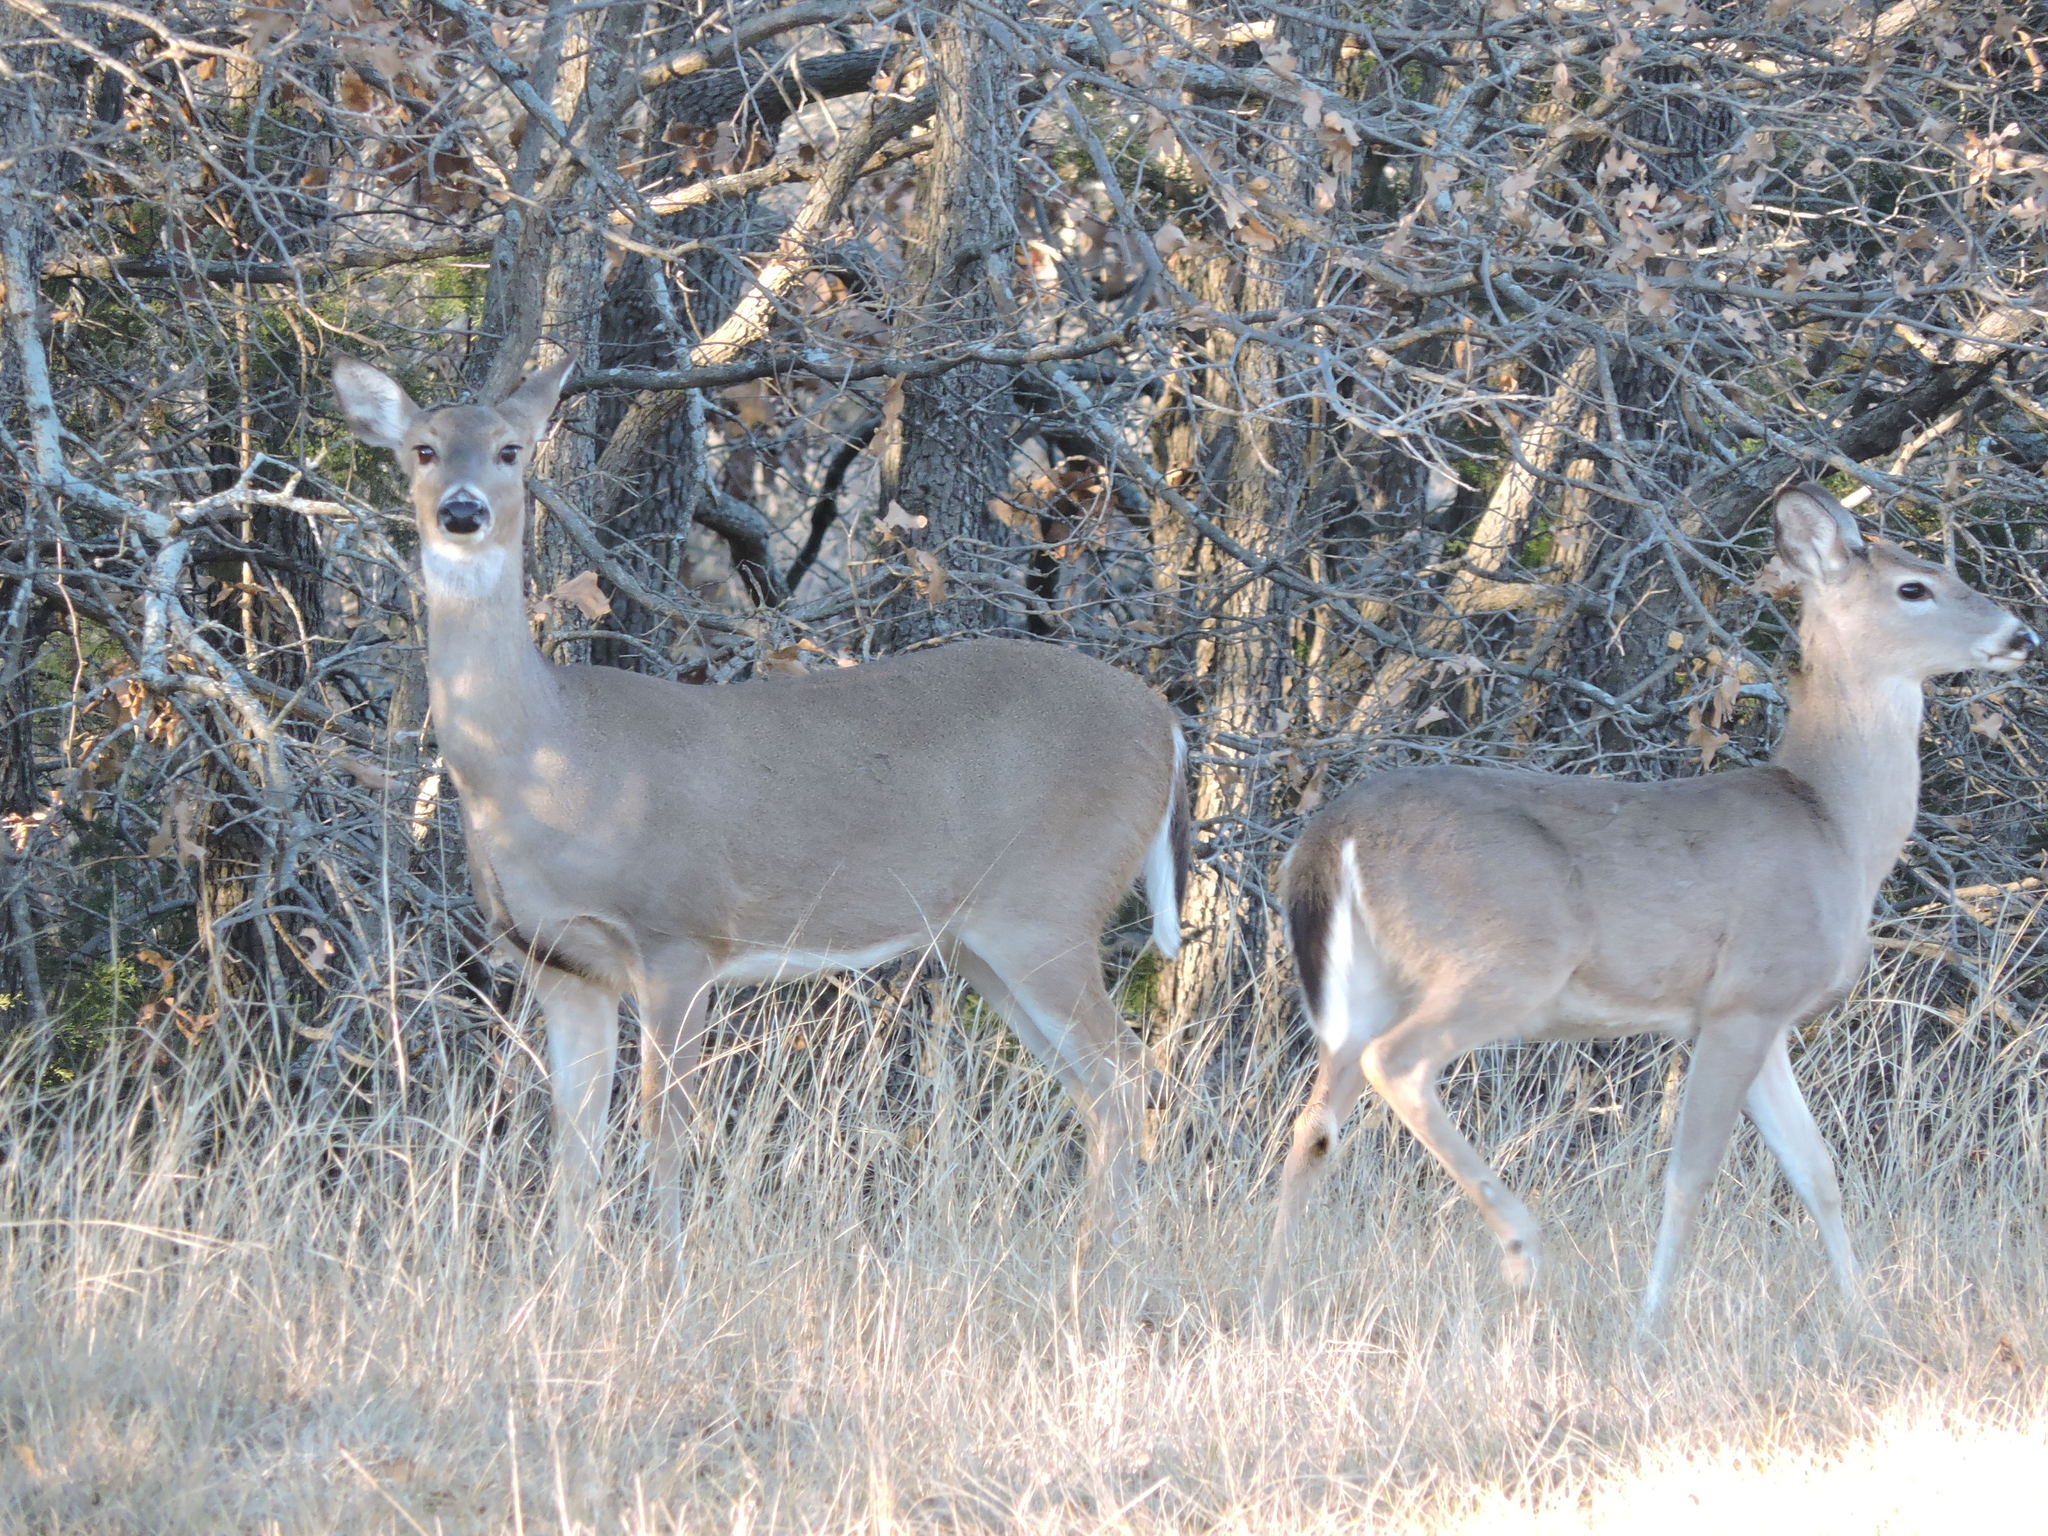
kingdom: Animalia
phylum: Chordata
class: Mammalia
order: Artiodactyla
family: Cervidae
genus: Odocoileus
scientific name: Odocoileus virginianus
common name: White-tailed deer
